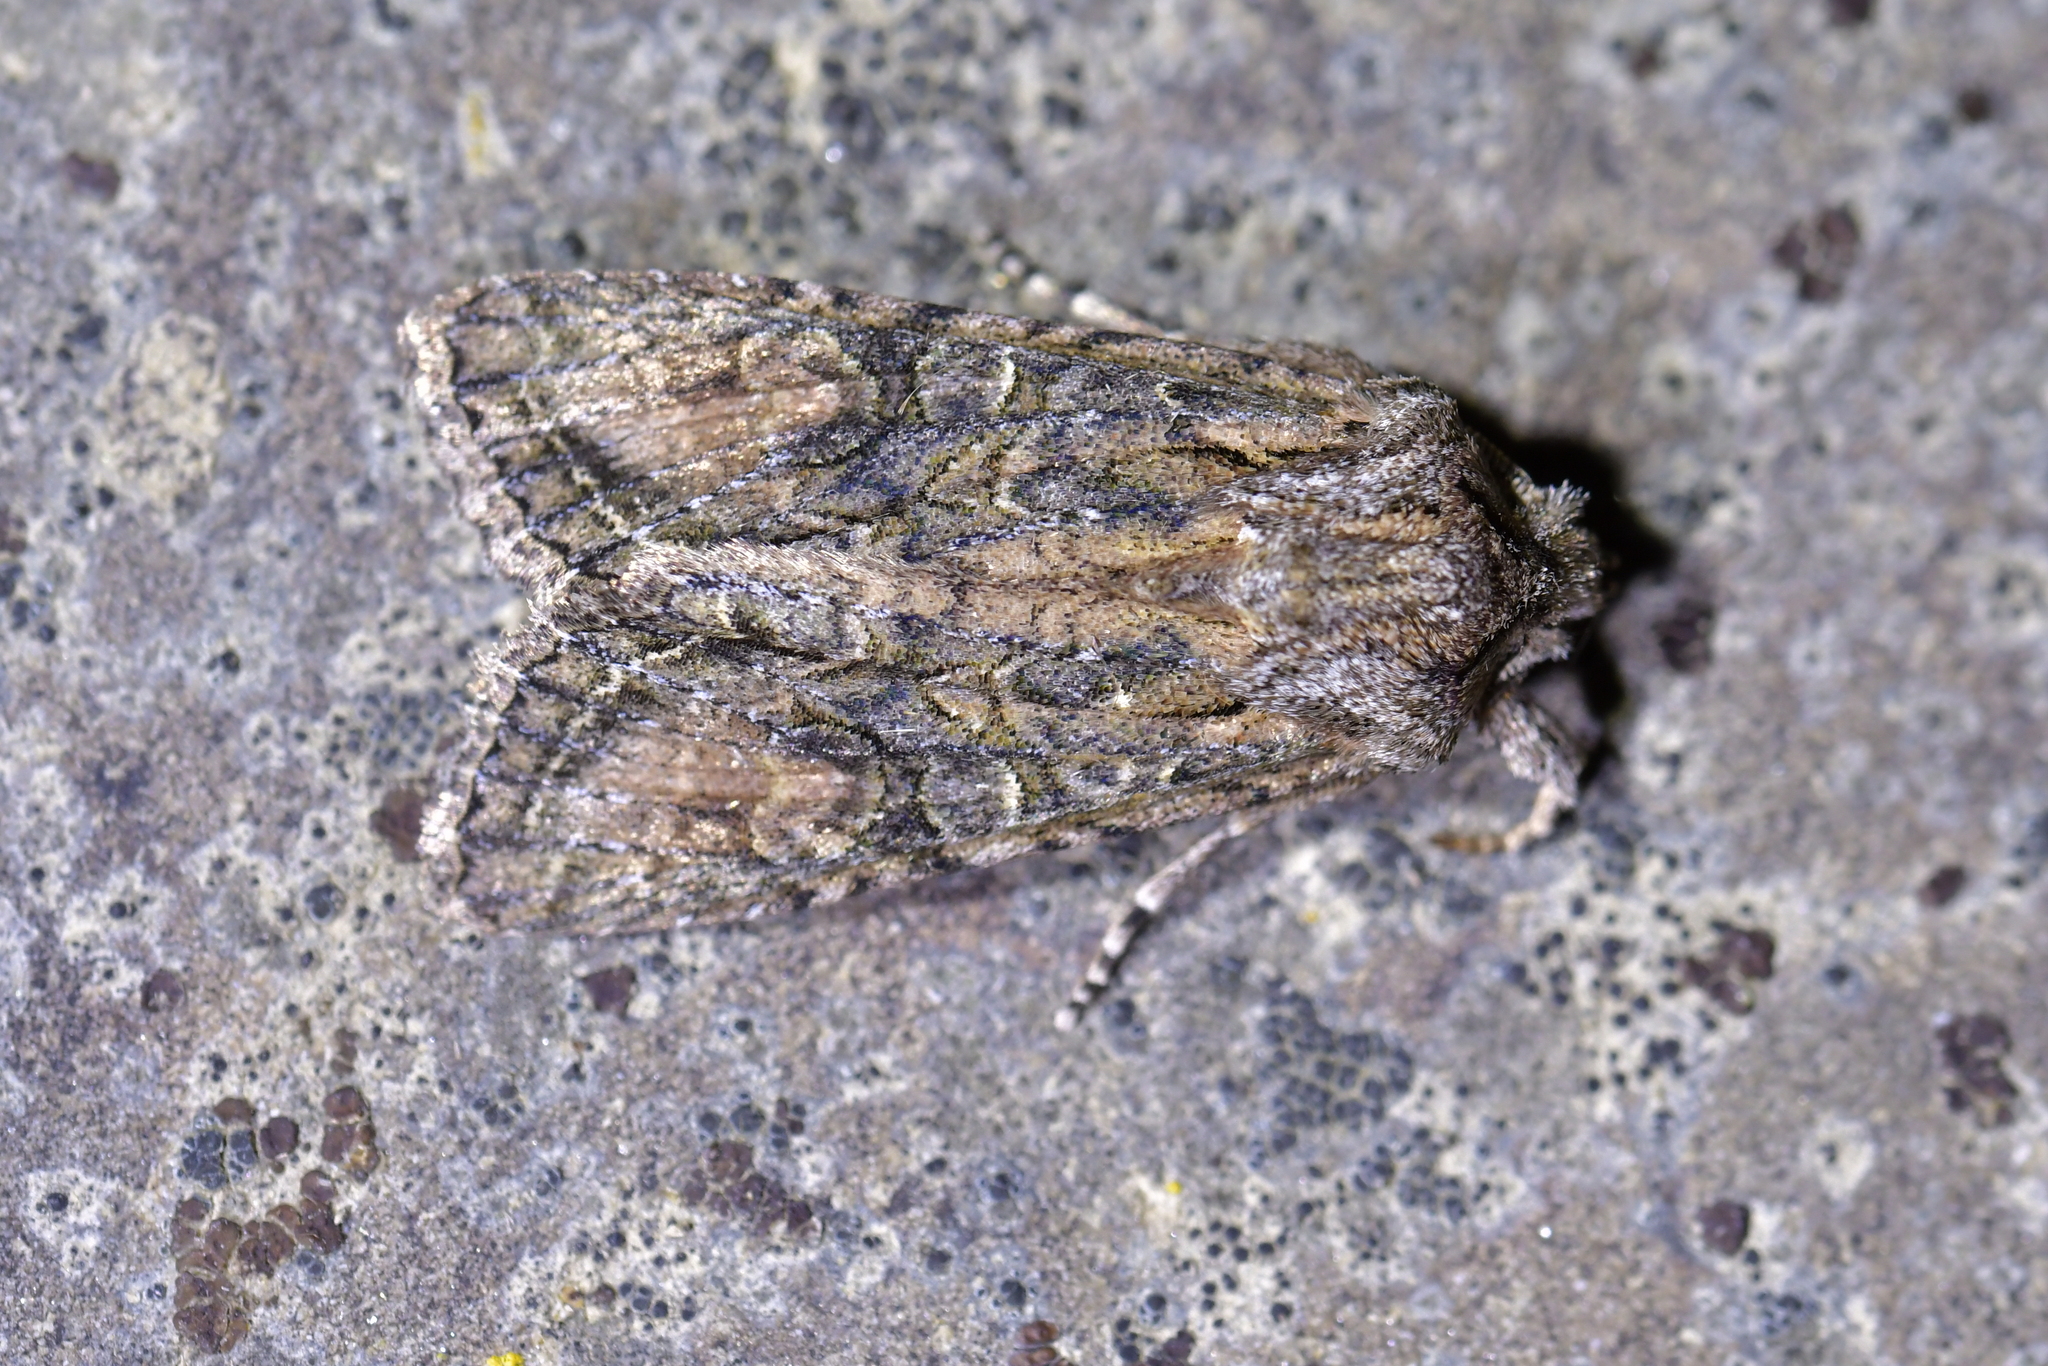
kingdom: Animalia
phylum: Arthropoda
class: Insecta
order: Lepidoptera
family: Noctuidae
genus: Ichneutica
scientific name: Ichneutica mutans
